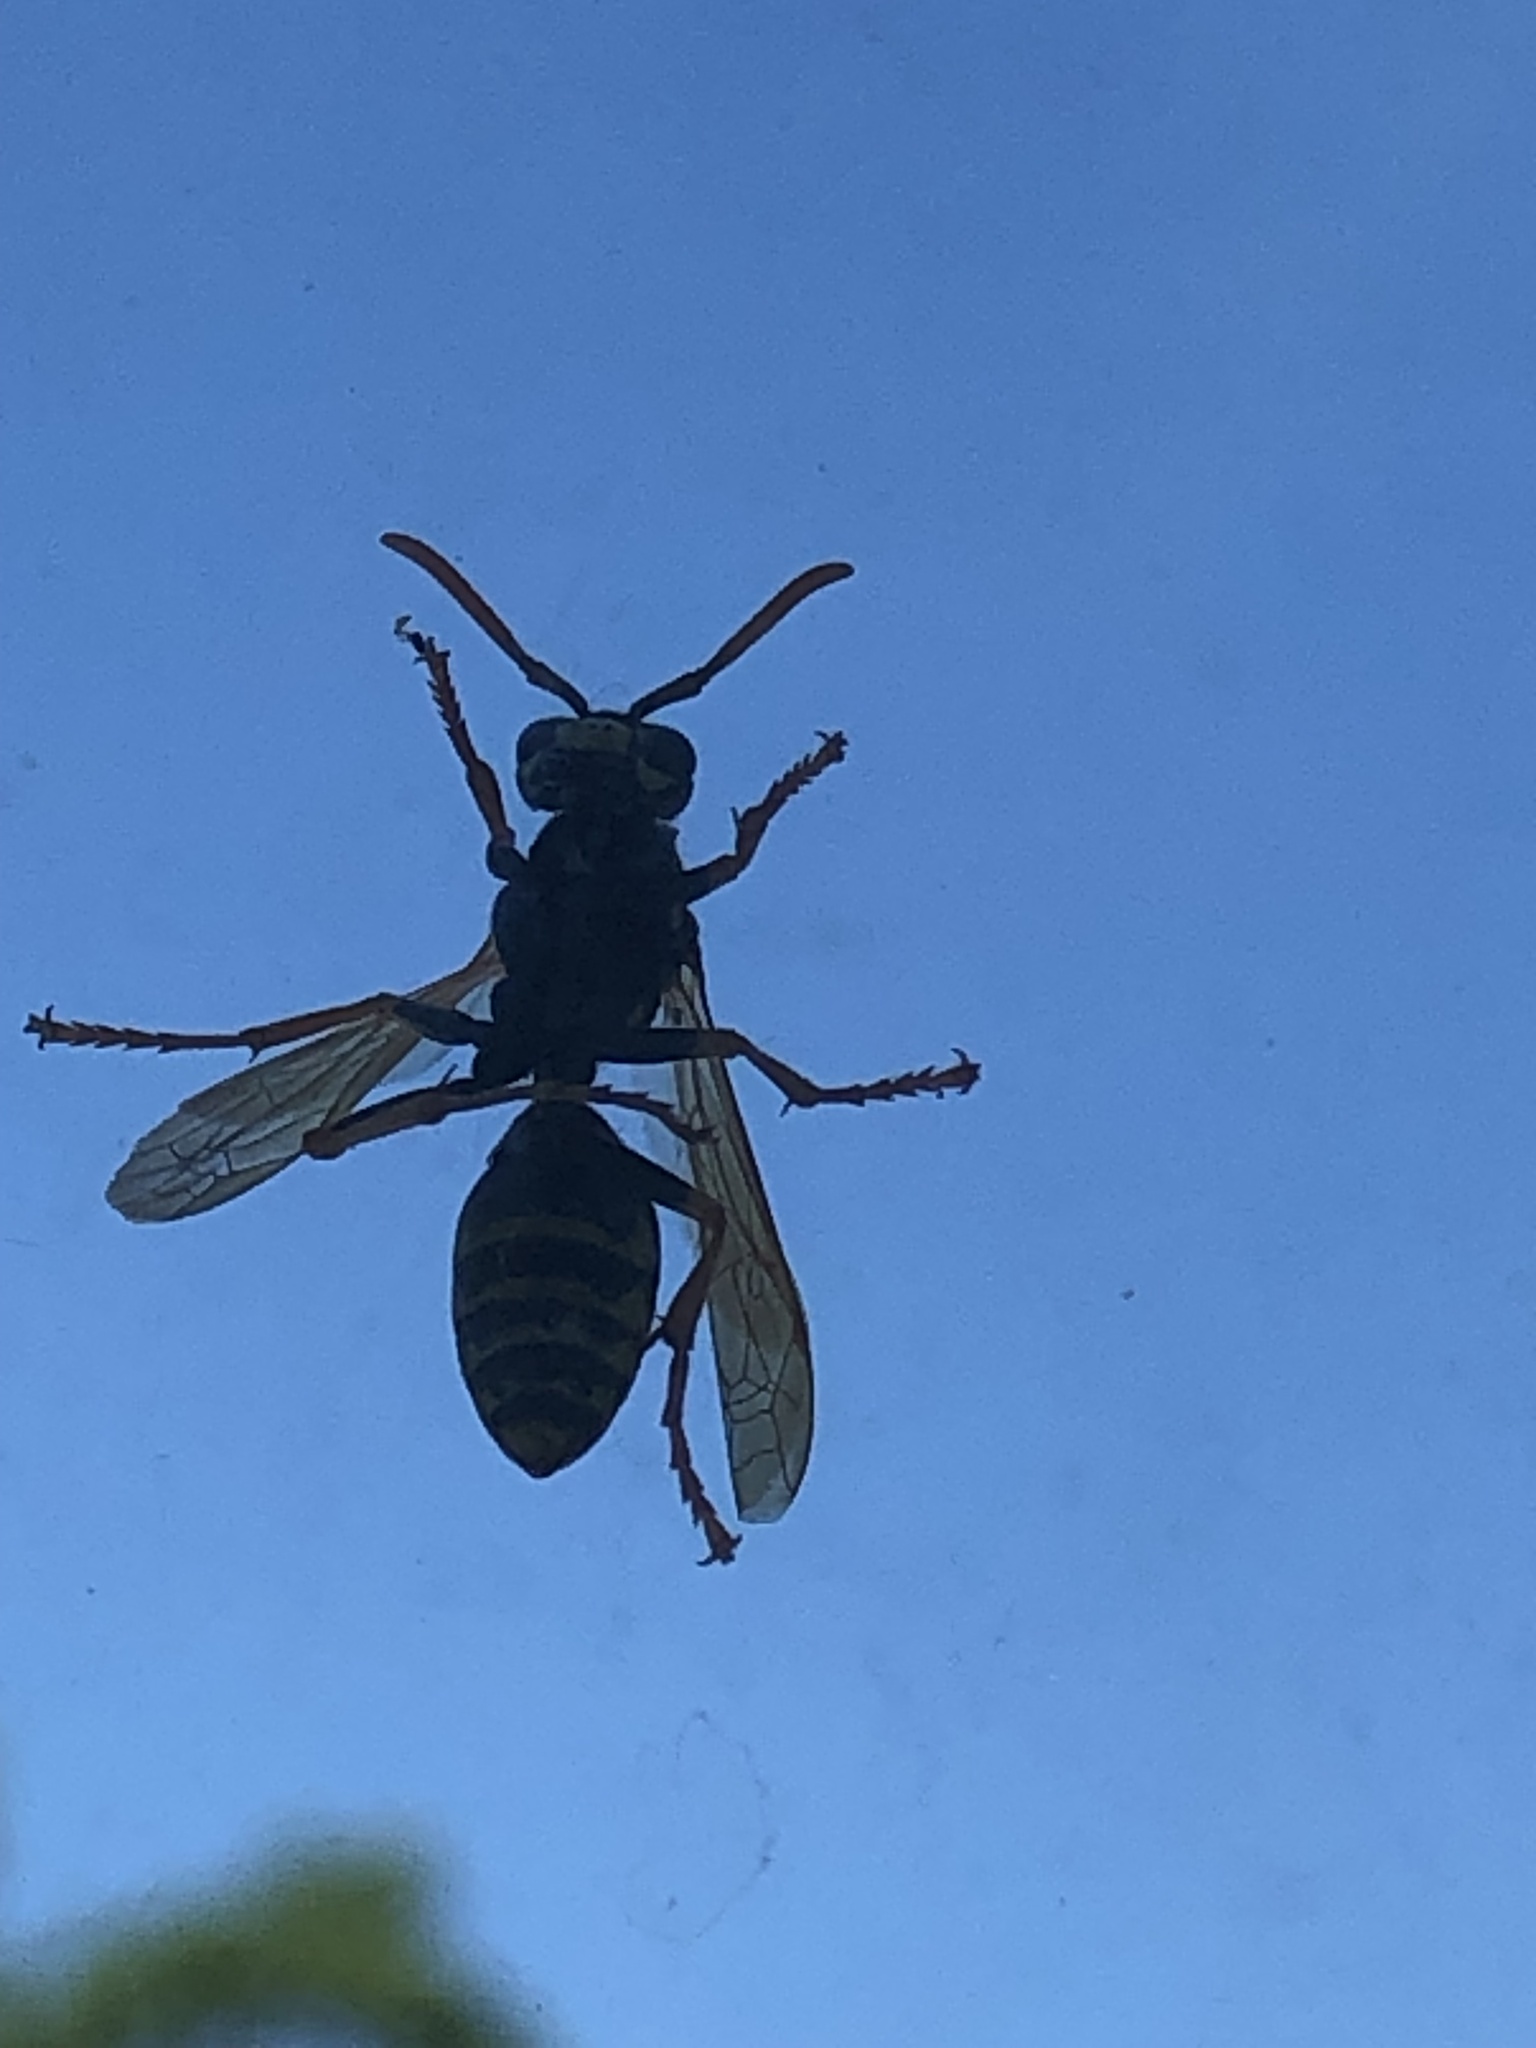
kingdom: Animalia
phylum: Arthropoda
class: Insecta
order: Hymenoptera
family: Eumenidae
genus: Polistes
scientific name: Polistes dominula
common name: Paper wasp
